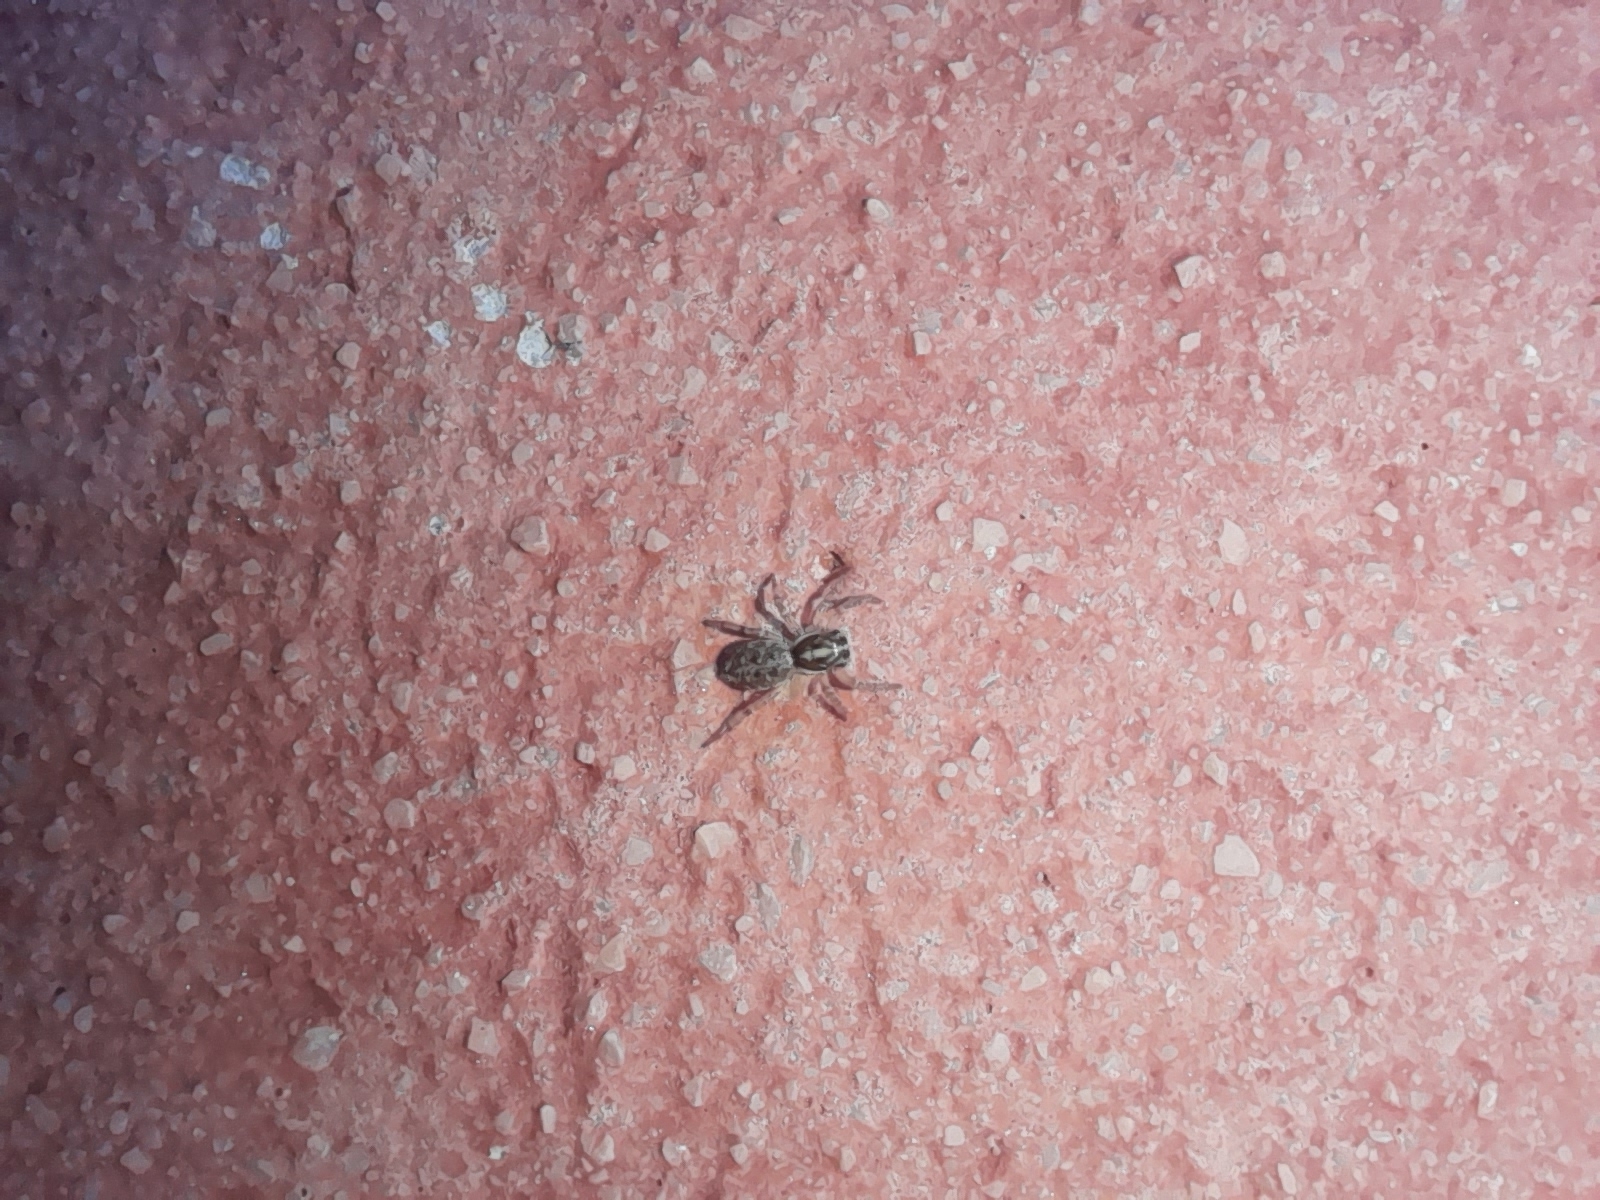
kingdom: Animalia
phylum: Arthropoda
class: Arachnida
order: Araneae
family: Salticidae
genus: Menemerus
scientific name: Menemerus semilimbatus
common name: Jumping spider
